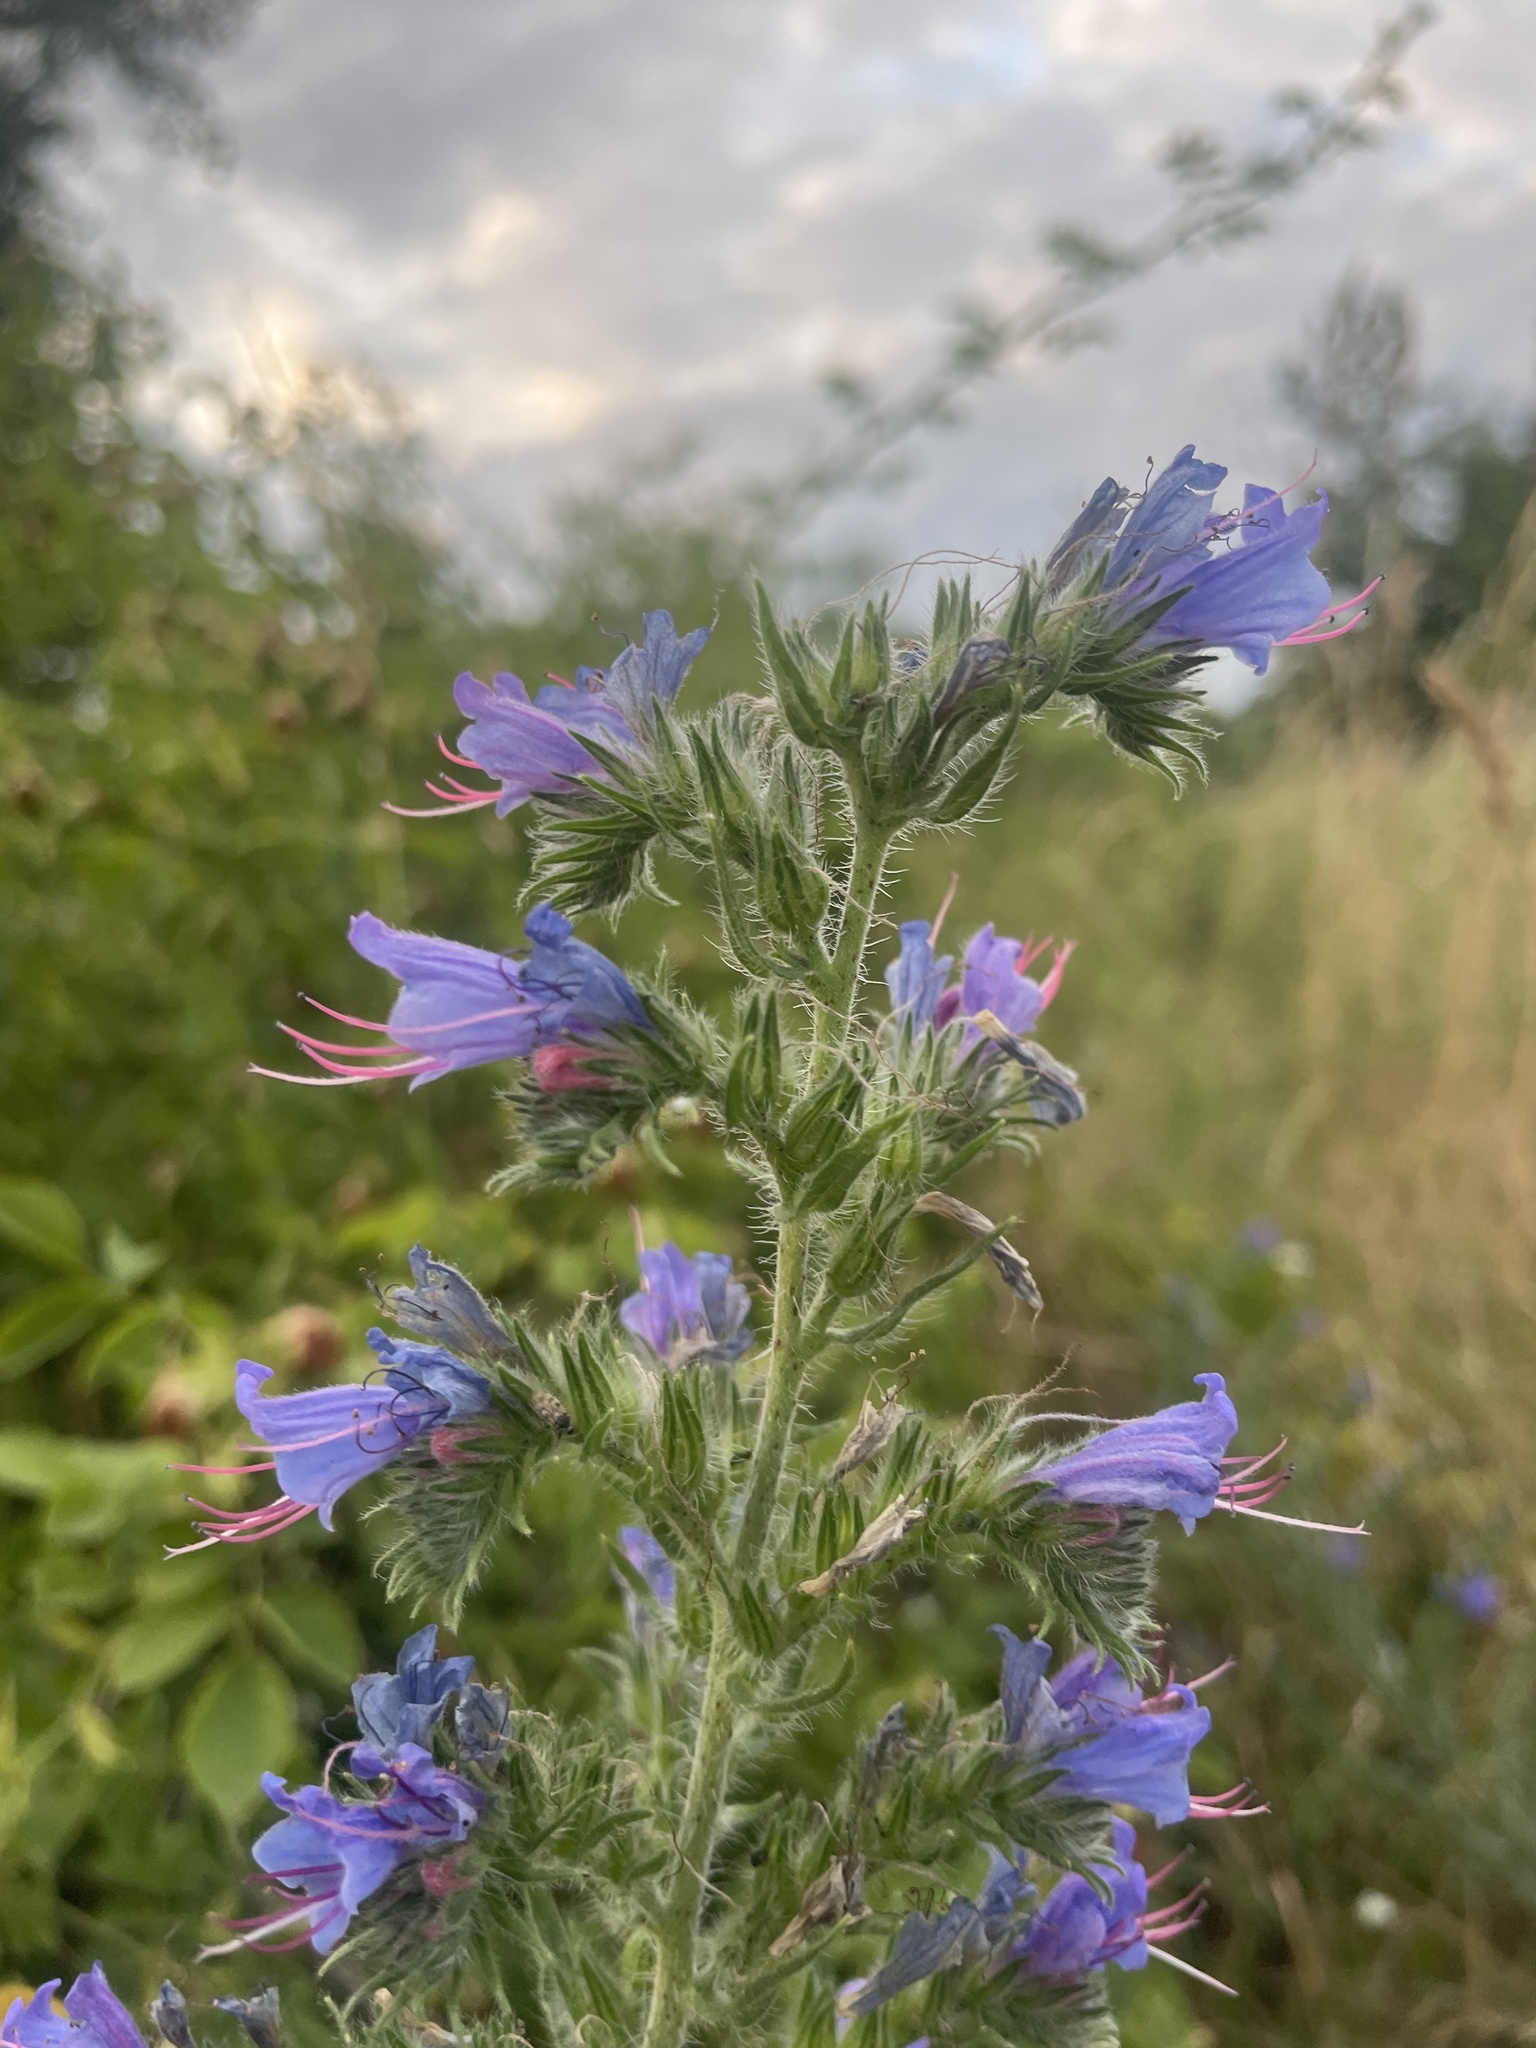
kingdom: Plantae
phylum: Tracheophyta
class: Magnoliopsida
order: Boraginales
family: Boraginaceae
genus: Echium
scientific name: Echium vulgare
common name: Common viper's bugloss
